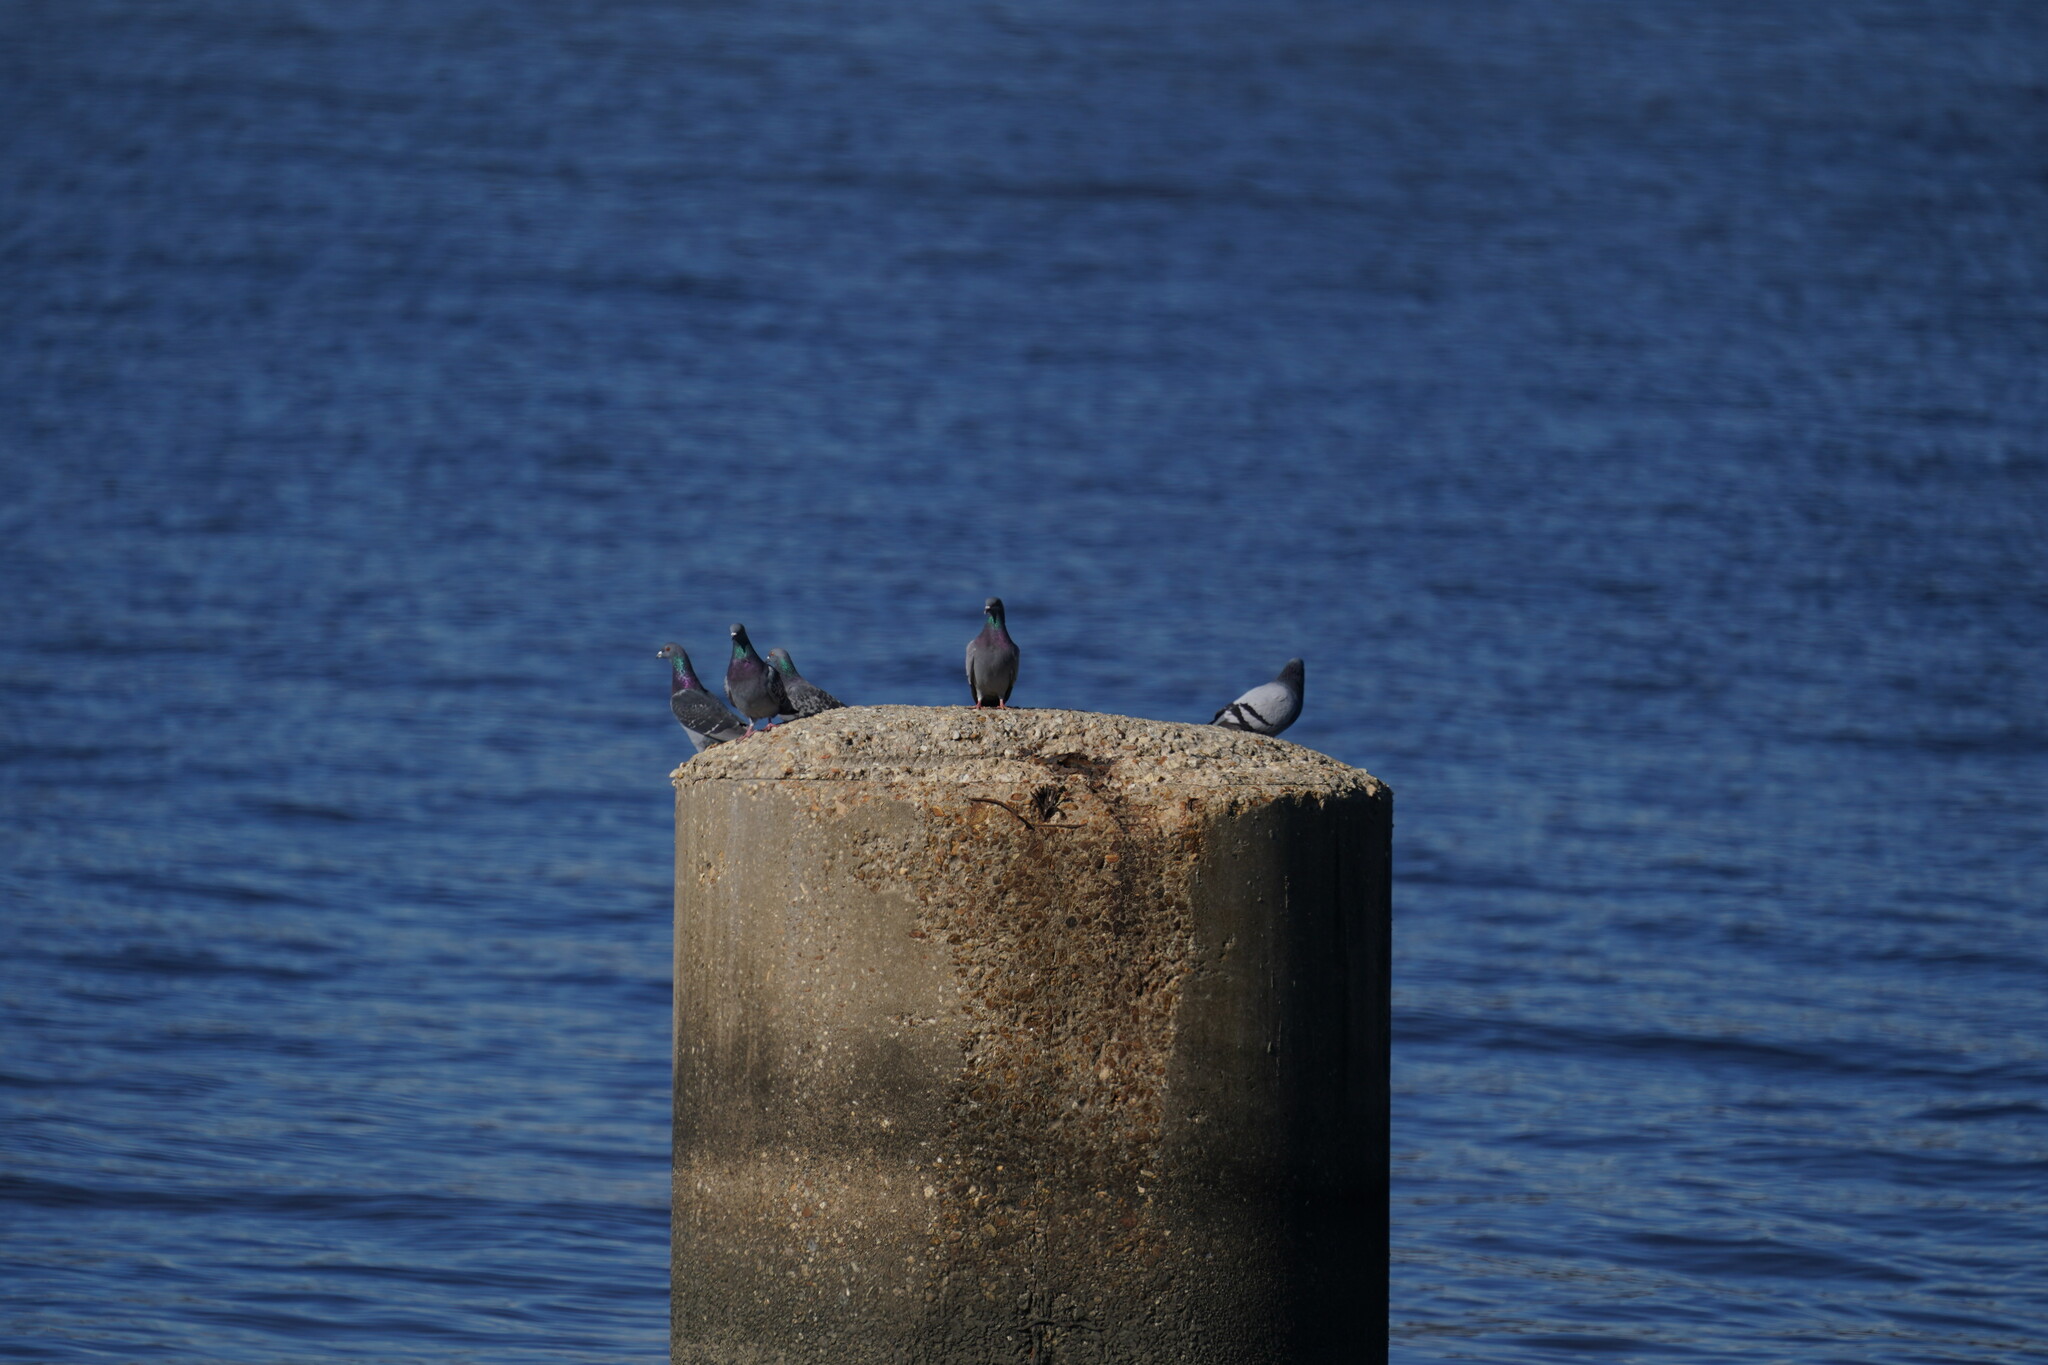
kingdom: Animalia
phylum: Chordata
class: Aves
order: Columbiformes
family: Columbidae
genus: Columba
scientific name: Columba livia
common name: Rock pigeon
